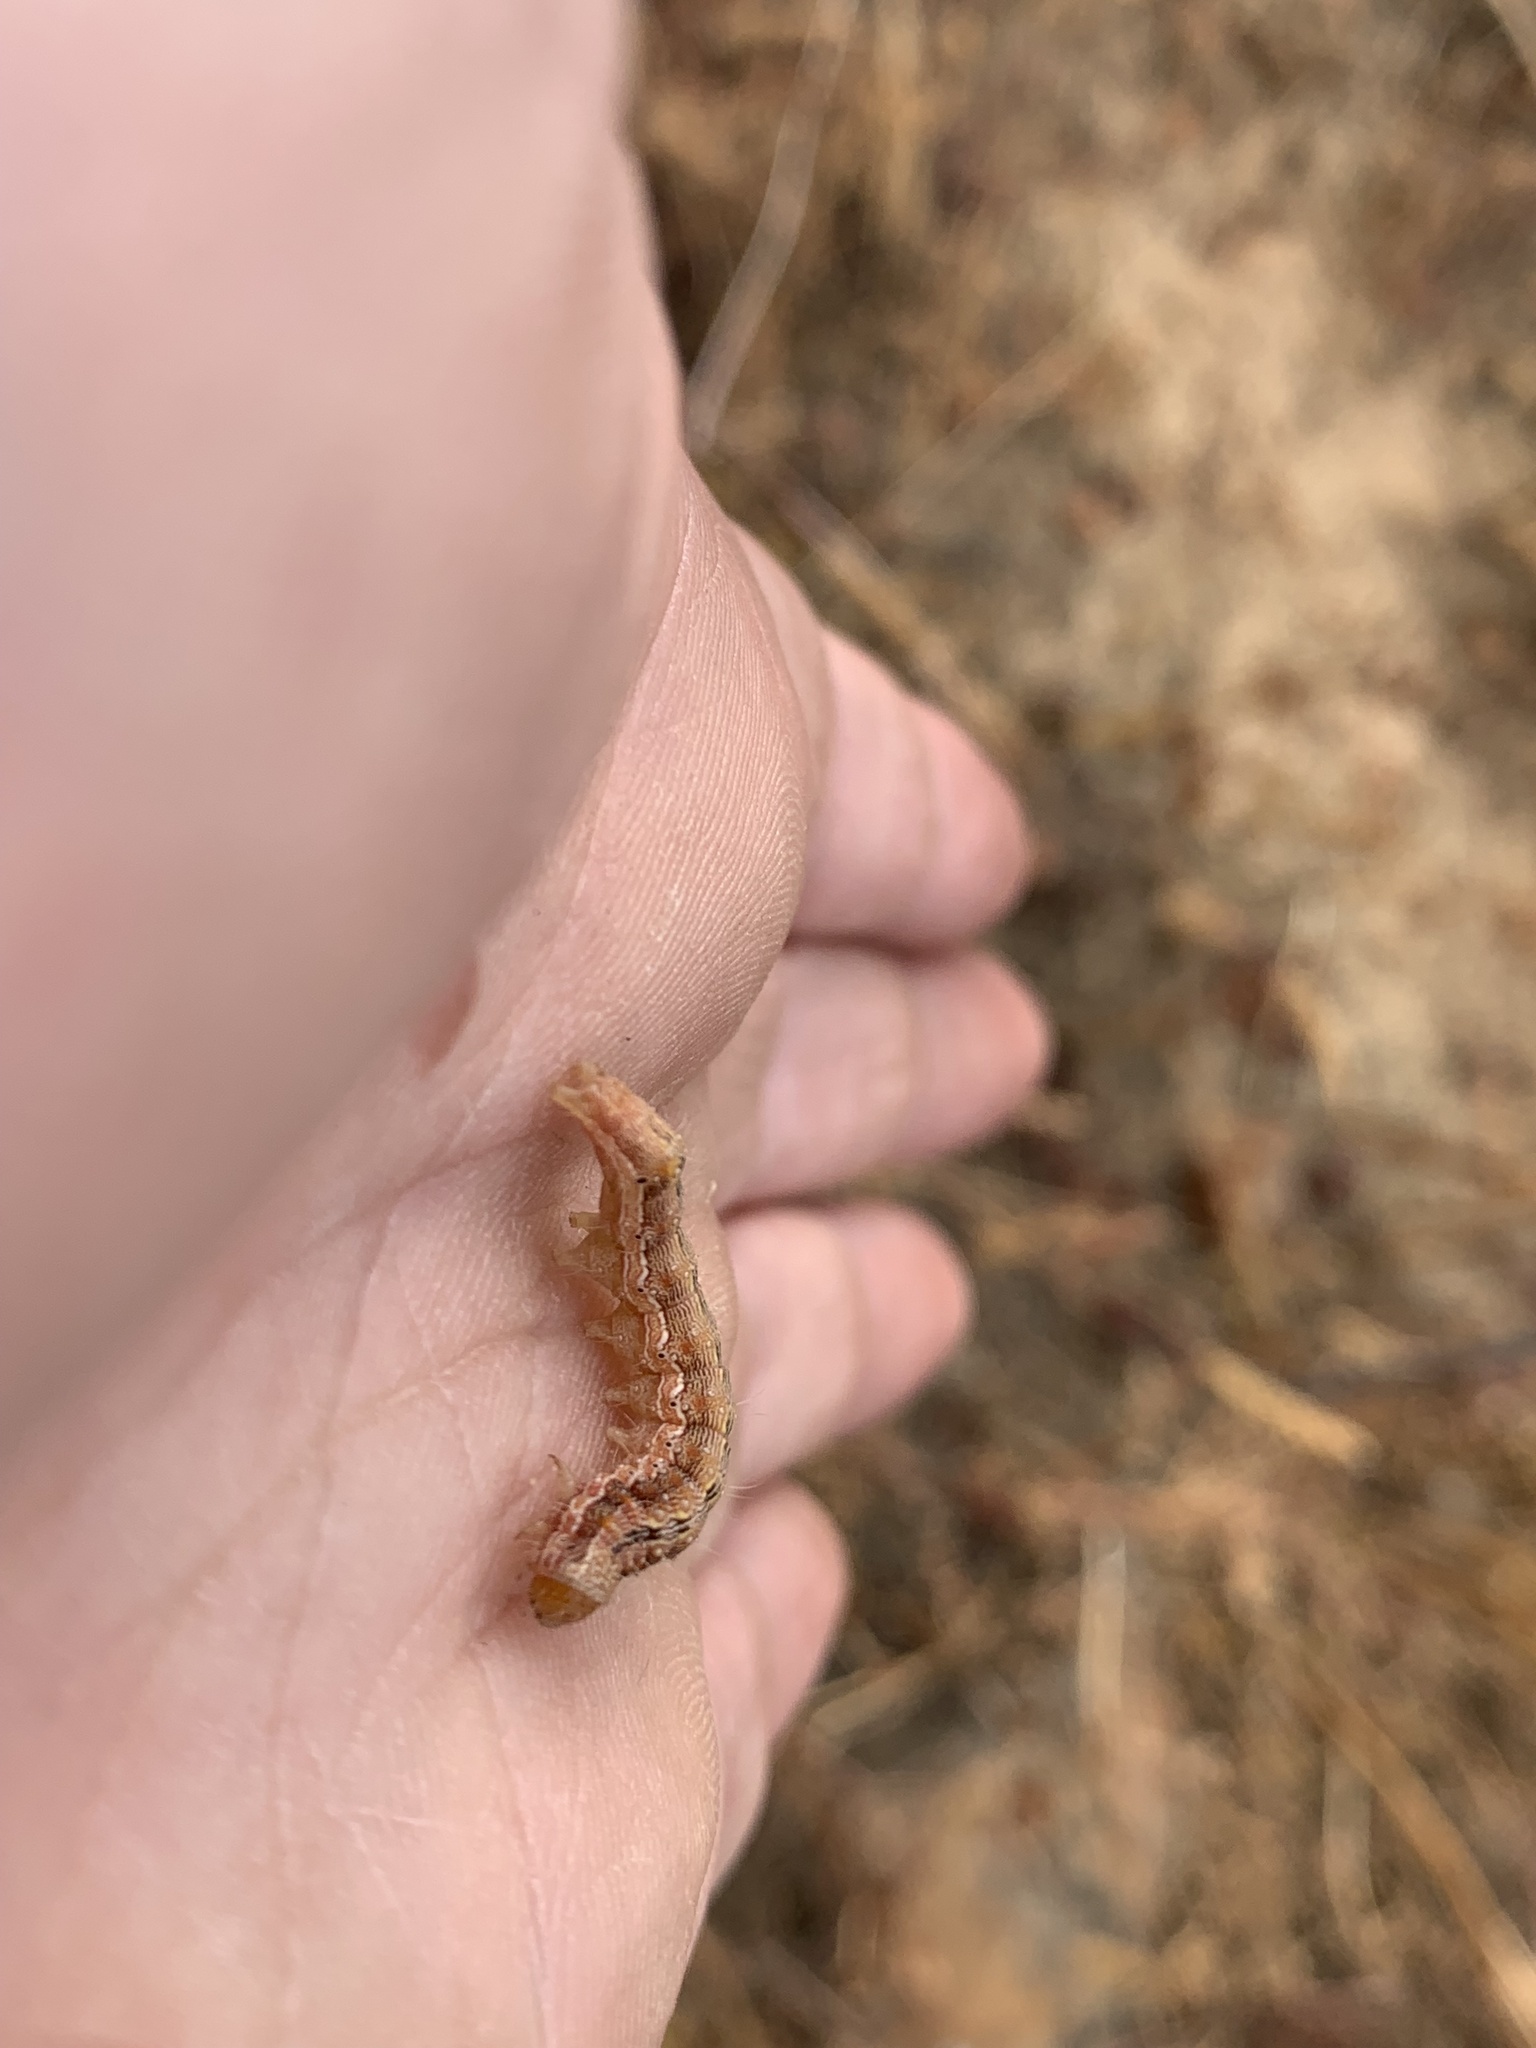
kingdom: Animalia
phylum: Arthropoda
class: Insecta
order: Lepidoptera
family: Noctuidae
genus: Helicoverpa
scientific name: Helicoverpa armigera
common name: Cotton bollworm
